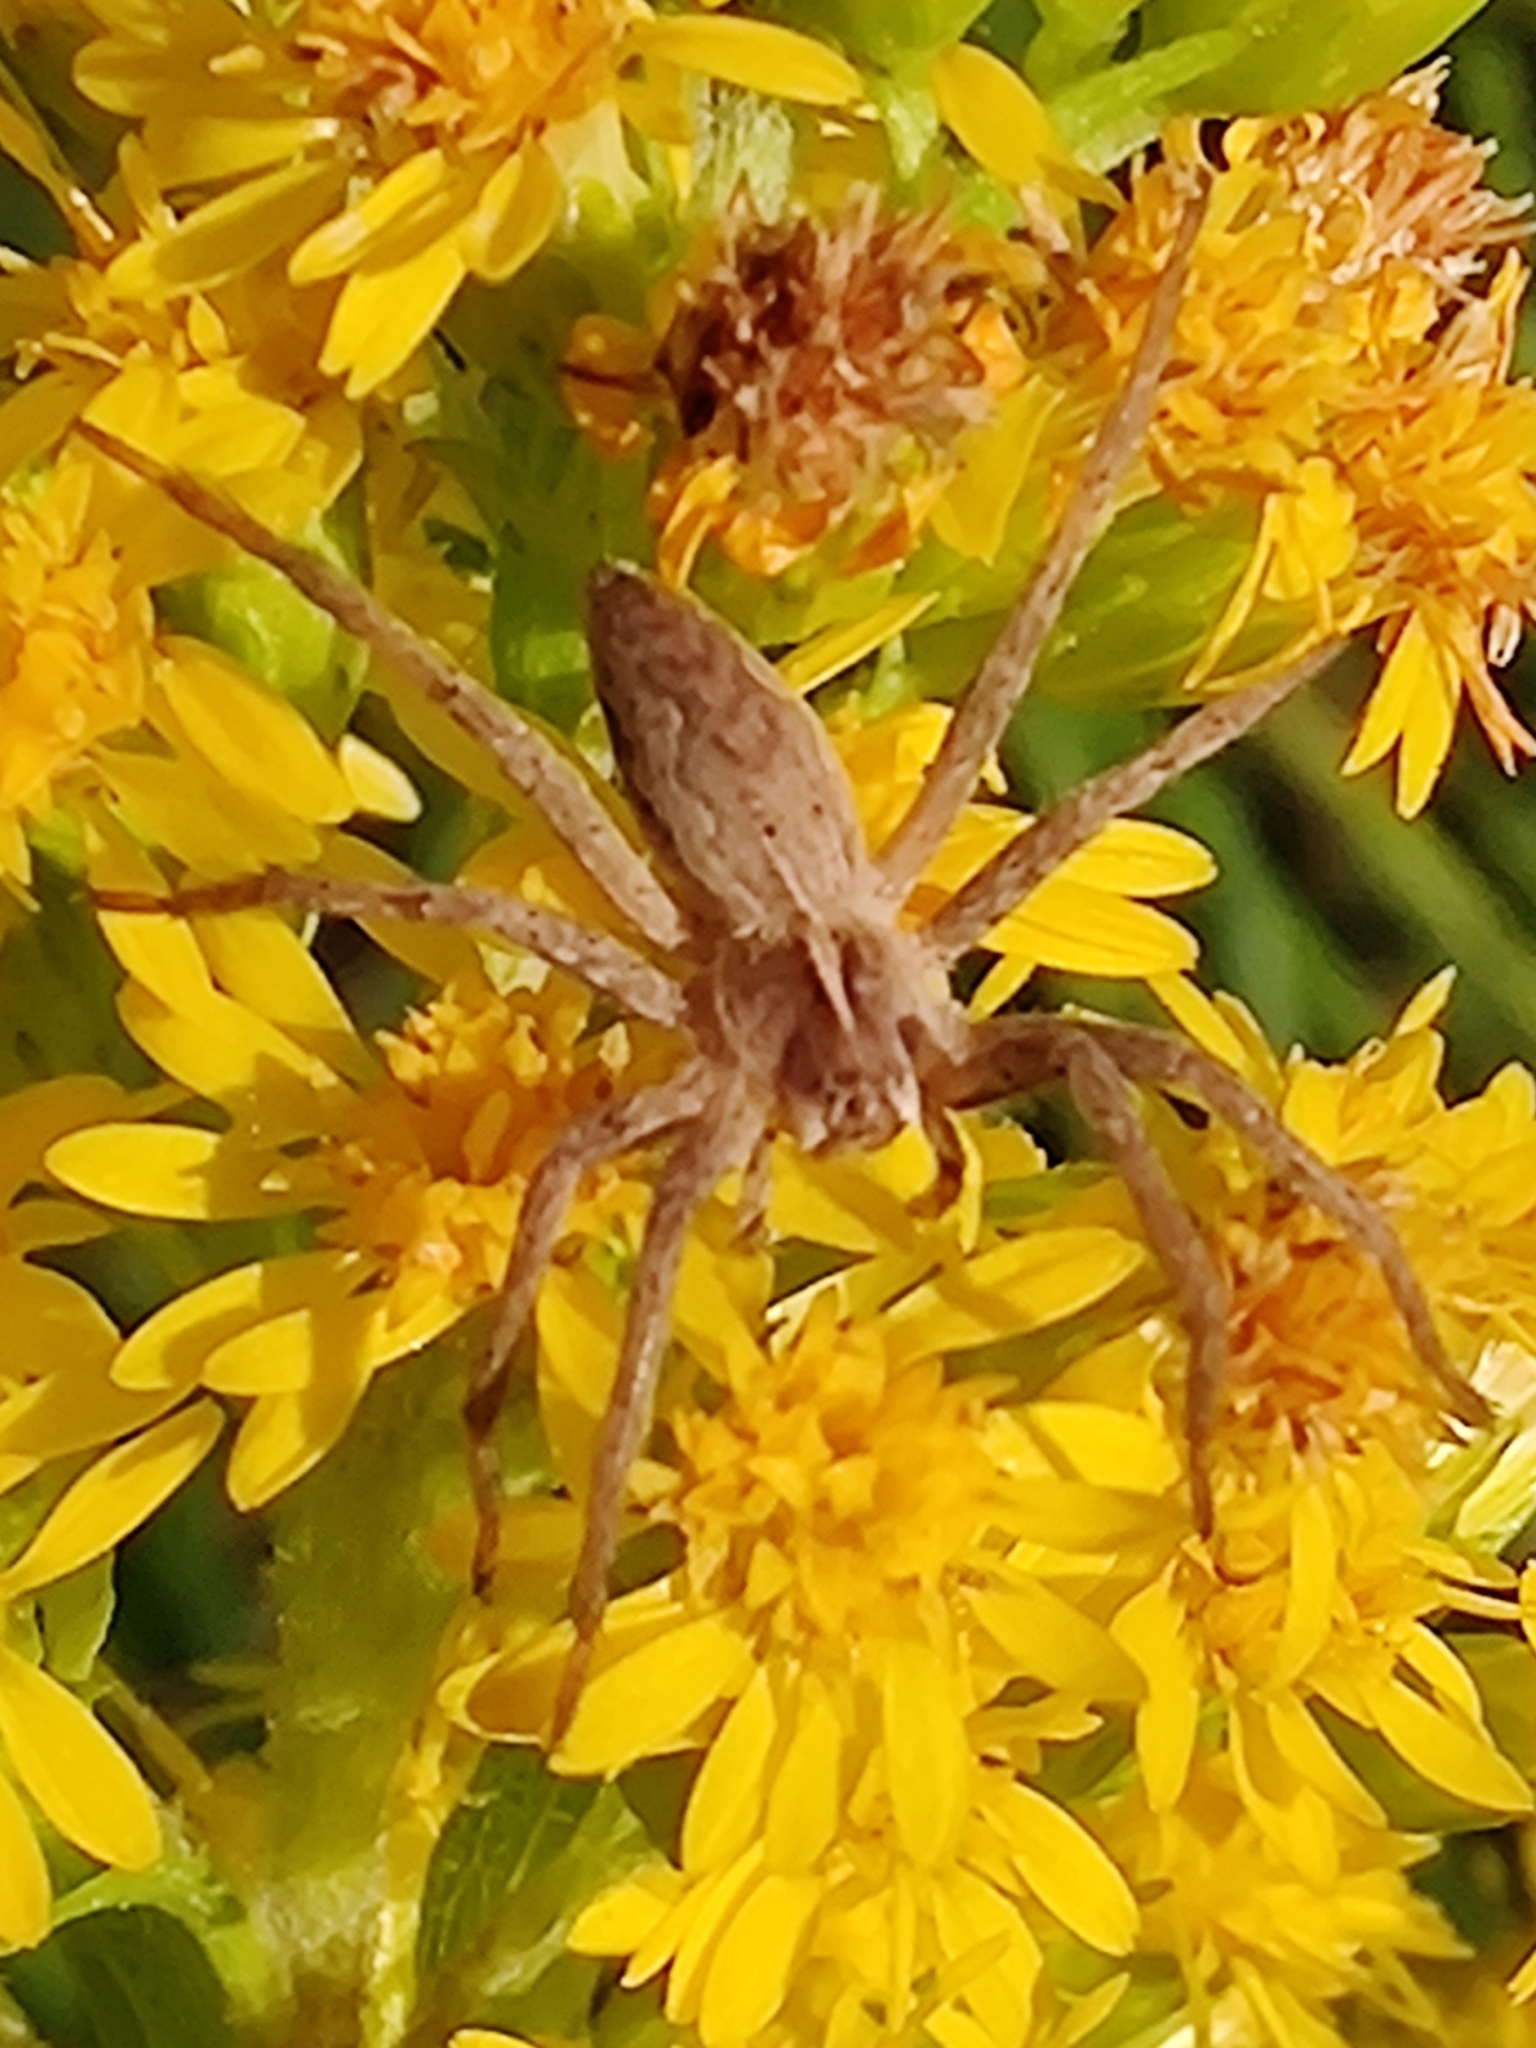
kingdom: Animalia
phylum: Arthropoda
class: Arachnida
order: Araneae
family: Pisauridae
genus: Pisaura
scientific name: Pisaura mirabilis
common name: Tent spider
